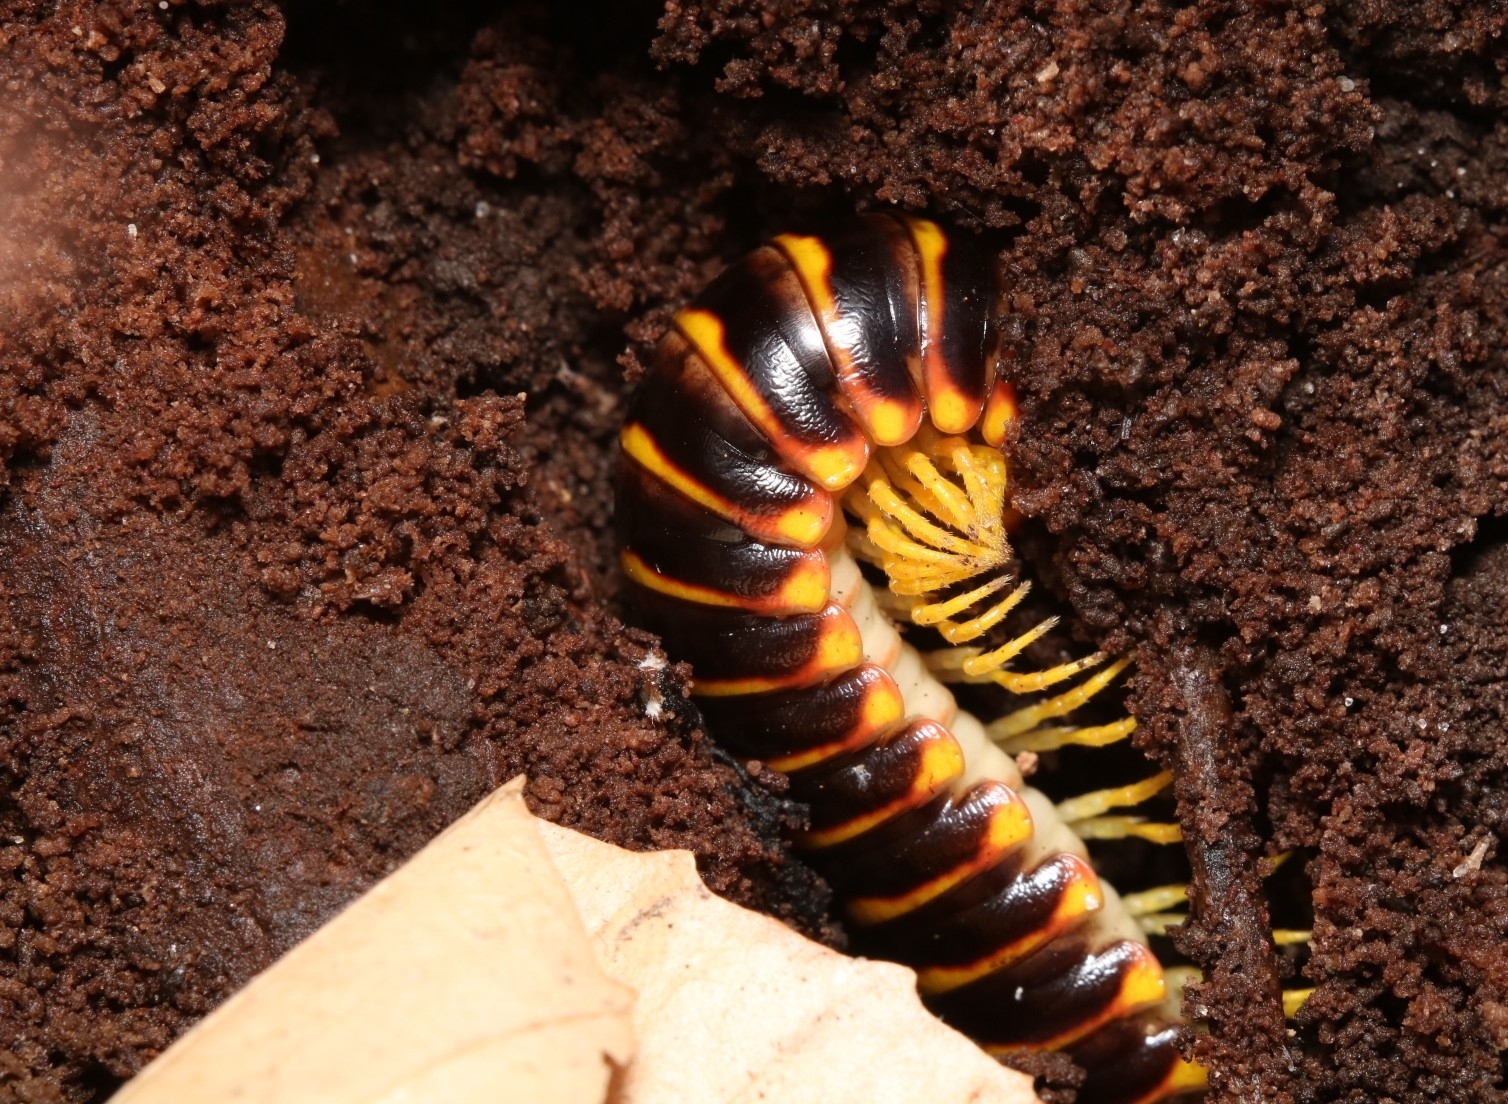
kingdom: Animalia
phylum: Arthropoda
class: Diplopoda
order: Polydesmida
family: Xystodesmidae
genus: Apheloria
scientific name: Apheloria virginiensis
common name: Black-and-gold flat millipede
